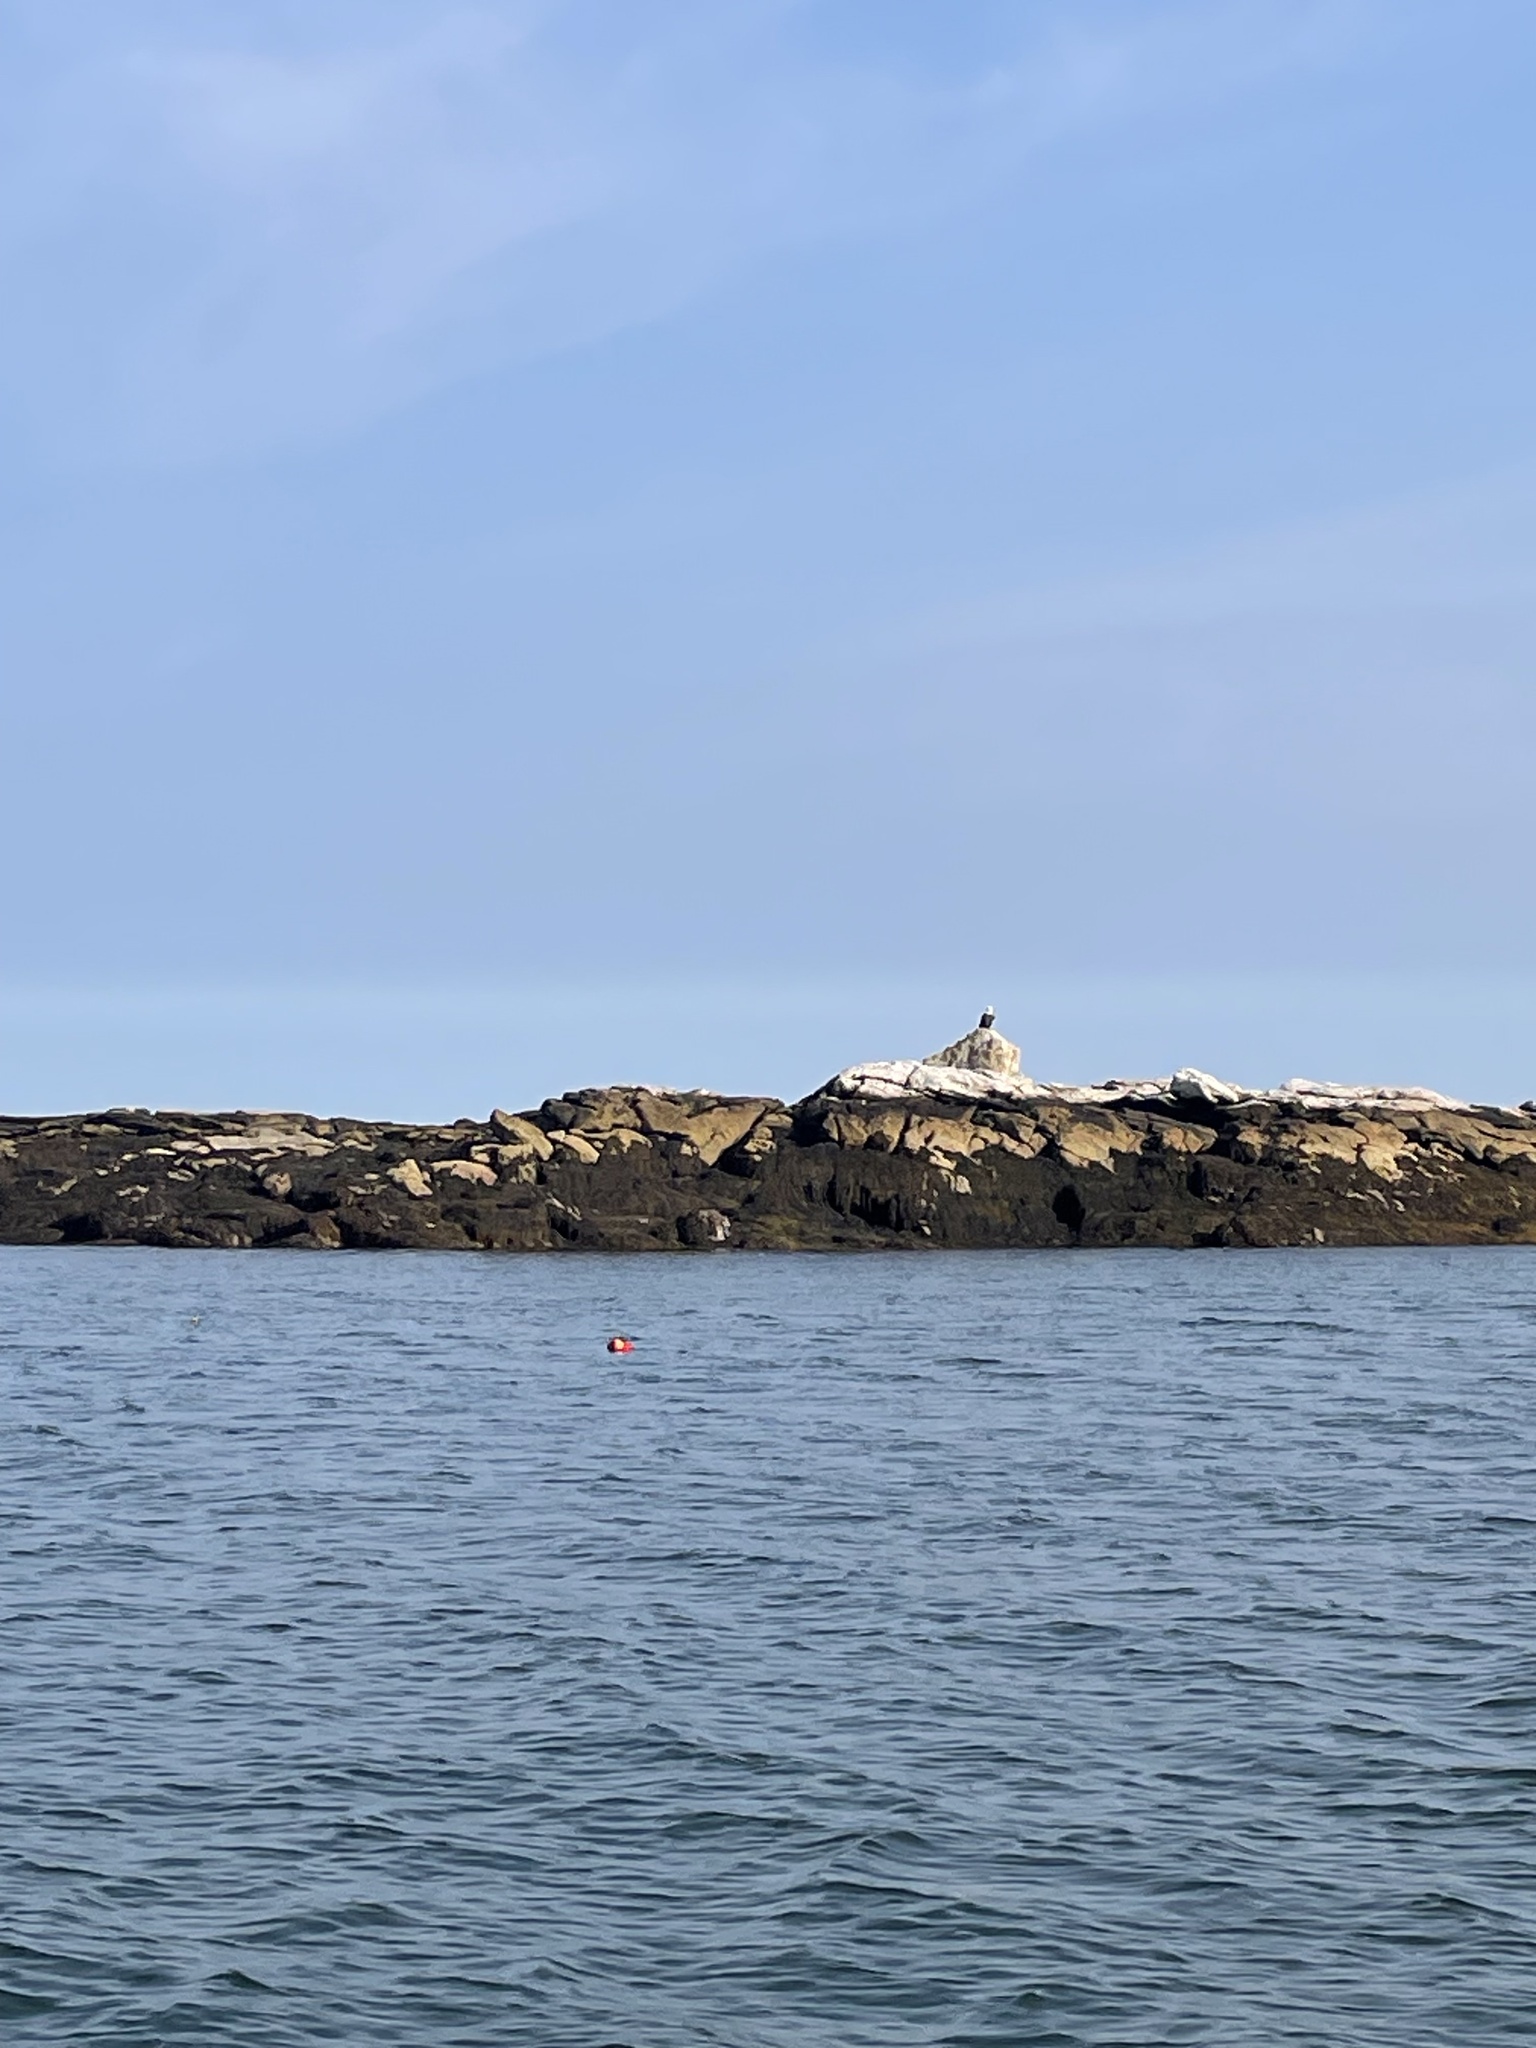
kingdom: Animalia
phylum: Chordata
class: Aves
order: Accipitriformes
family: Accipitridae
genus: Haliaeetus
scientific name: Haliaeetus leucocephalus
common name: Bald eagle
